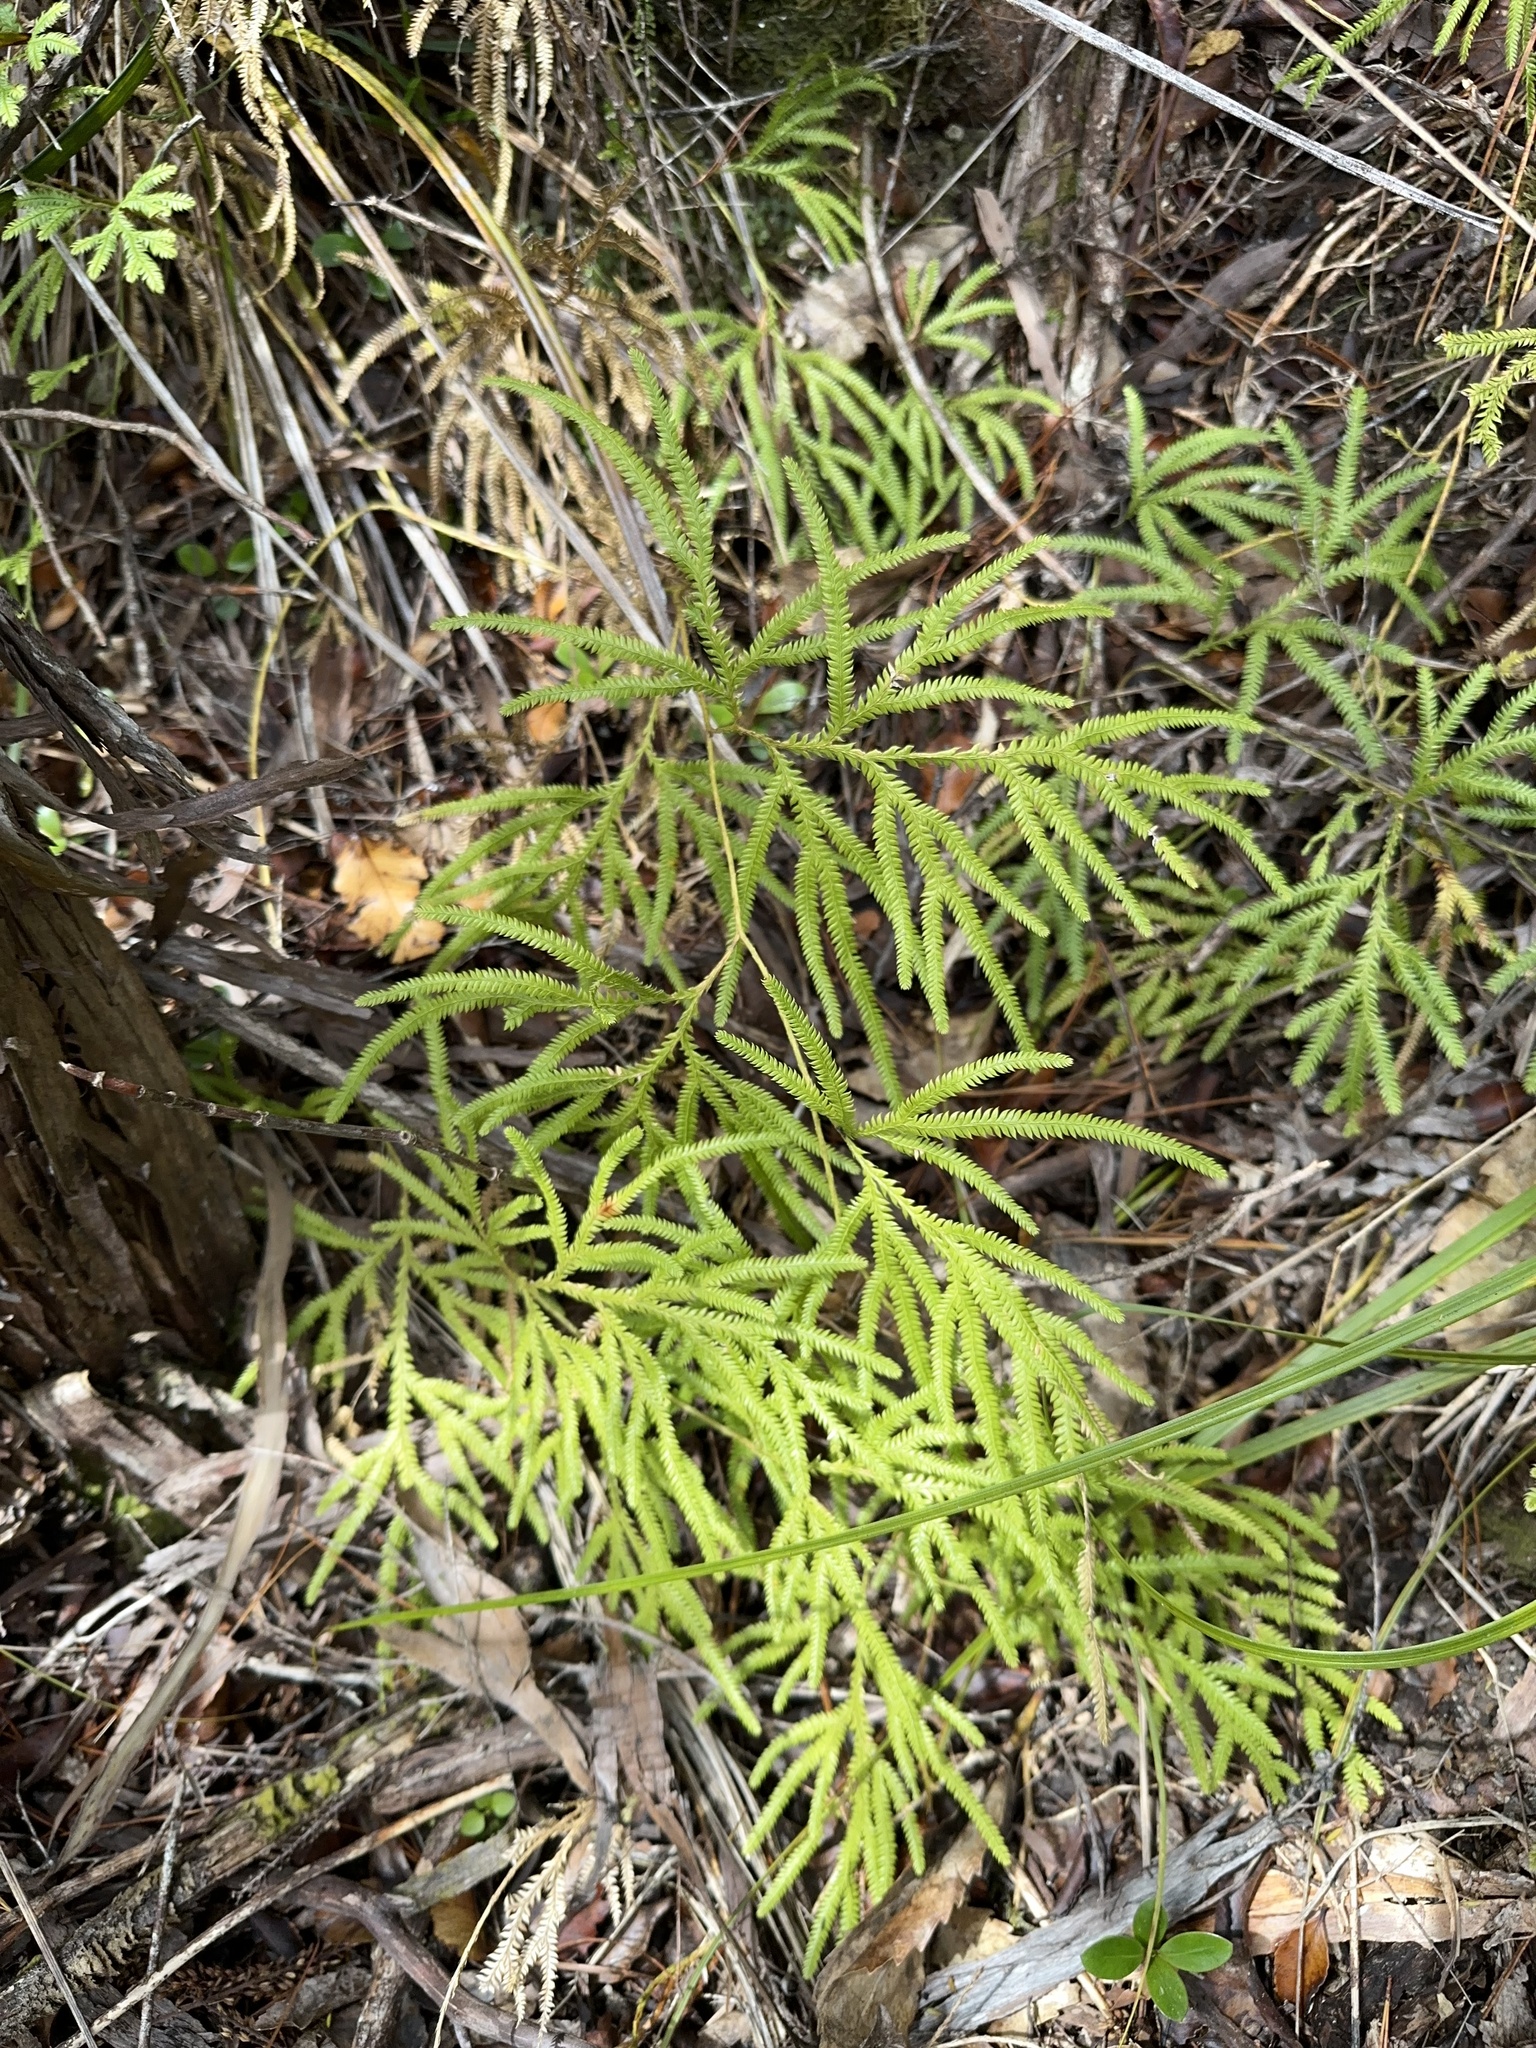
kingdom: Plantae
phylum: Tracheophyta
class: Lycopodiopsida
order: Lycopodiales
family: Lycopodiaceae
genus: Lycopodium
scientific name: Lycopodium volubile
